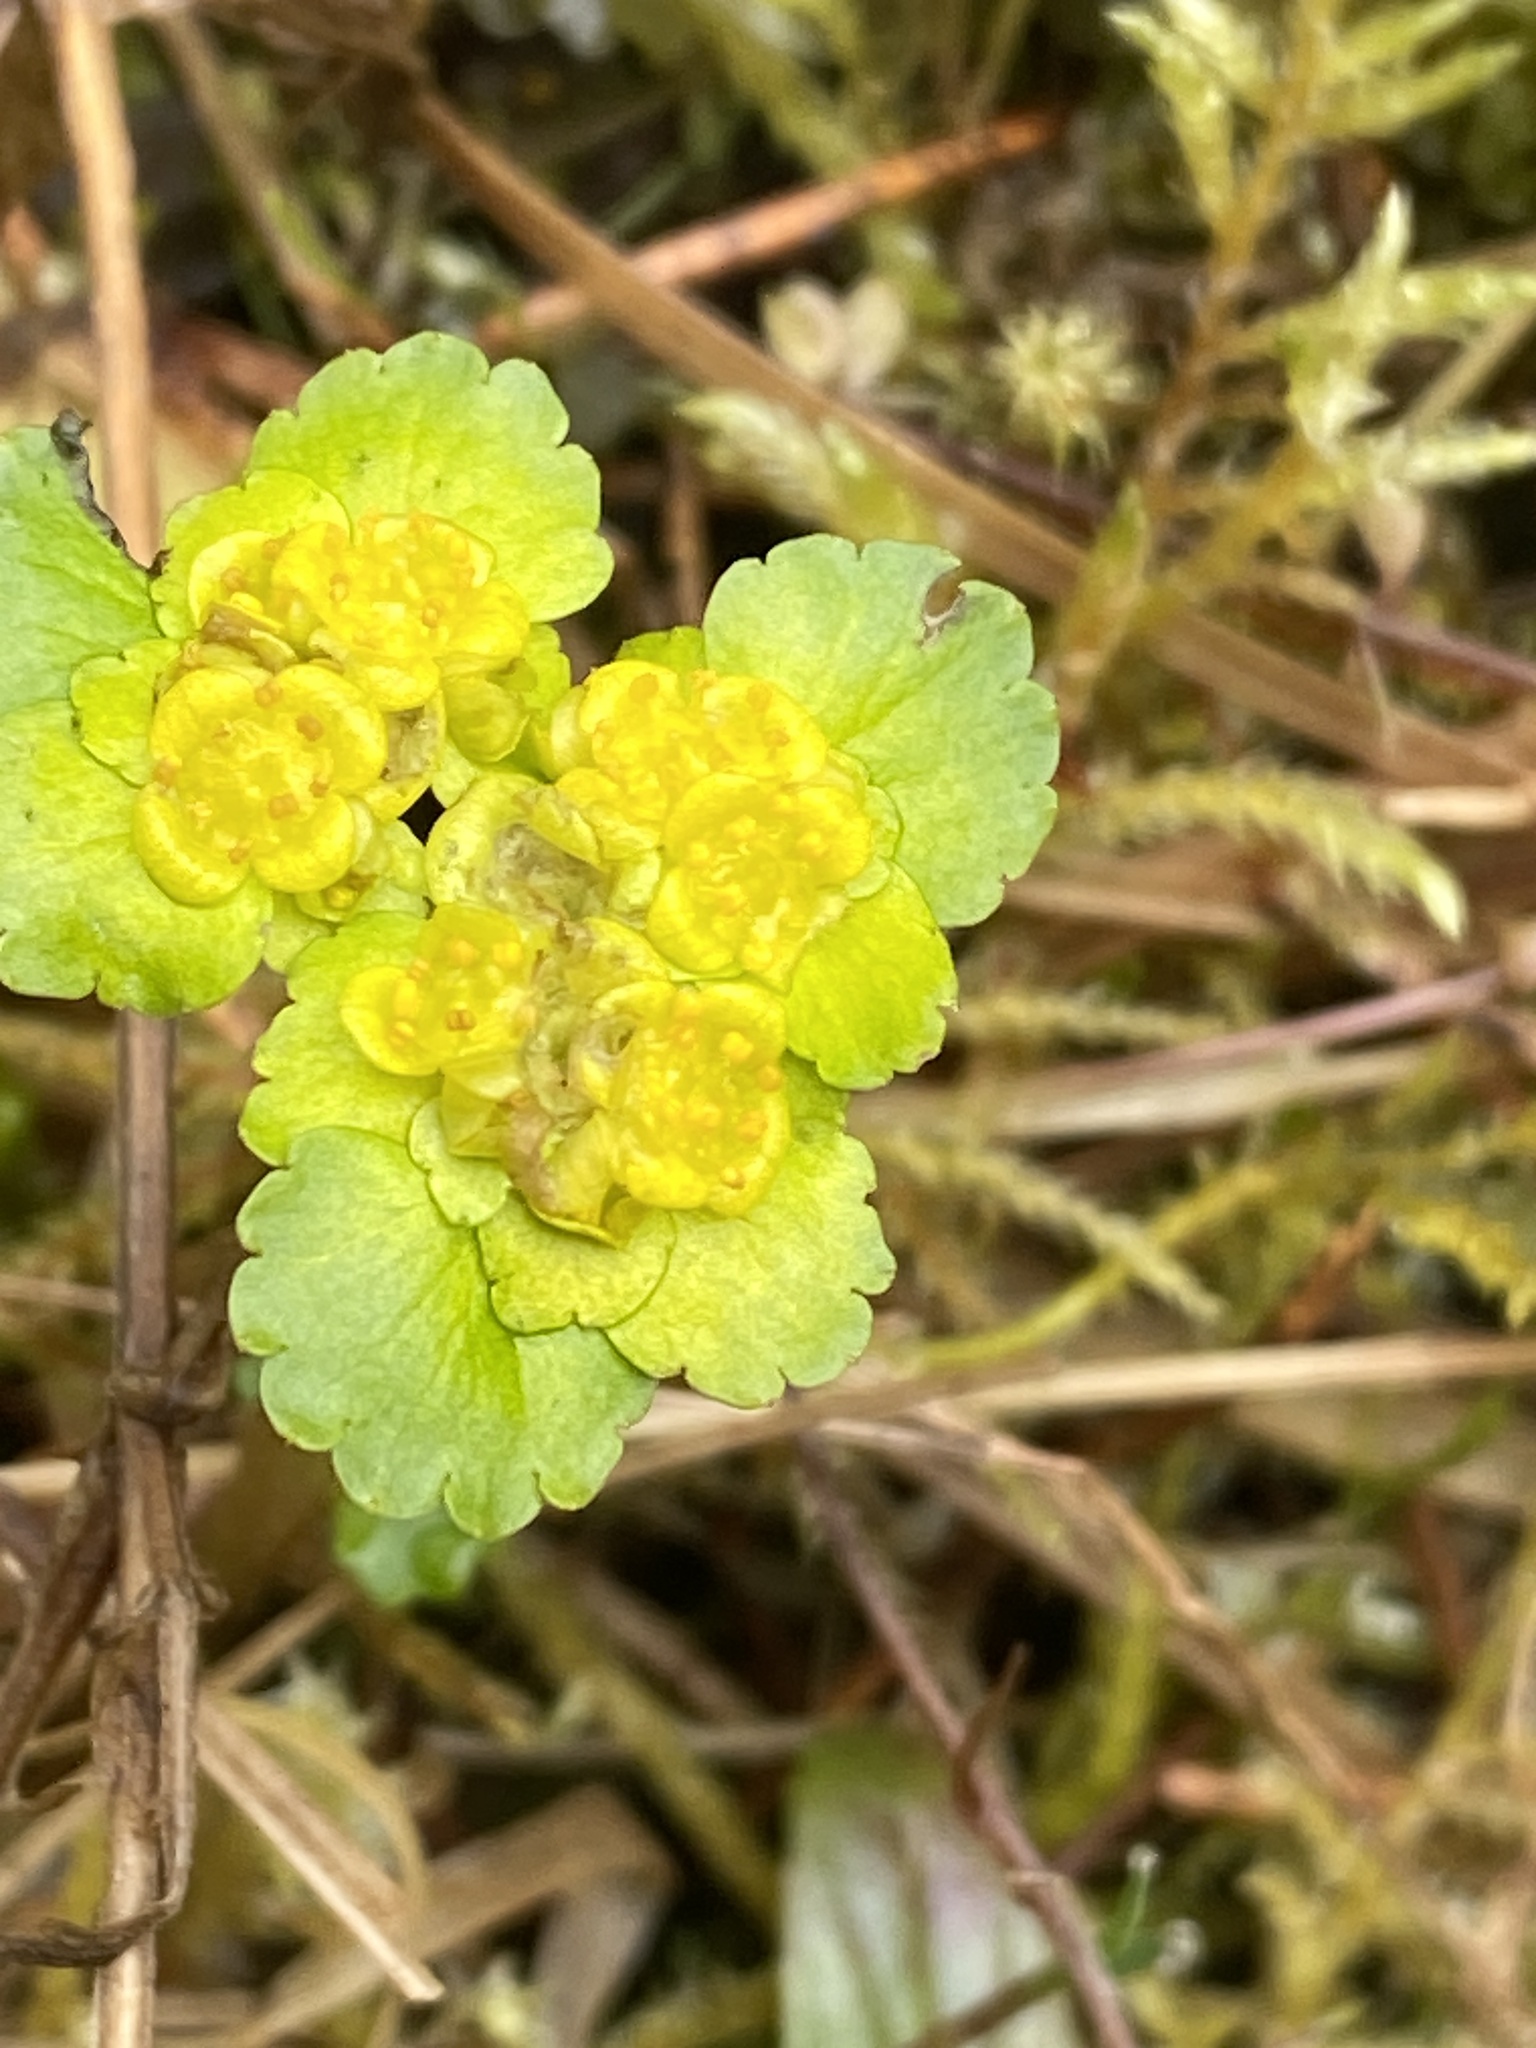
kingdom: Plantae
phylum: Tracheophyta
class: Magnoliopsida
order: Saxifragales
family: Saxifragaceae
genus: Chrysosplenium
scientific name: Chrysosplenium alternifolium
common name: Alternate-leaved golden-saxifrage
